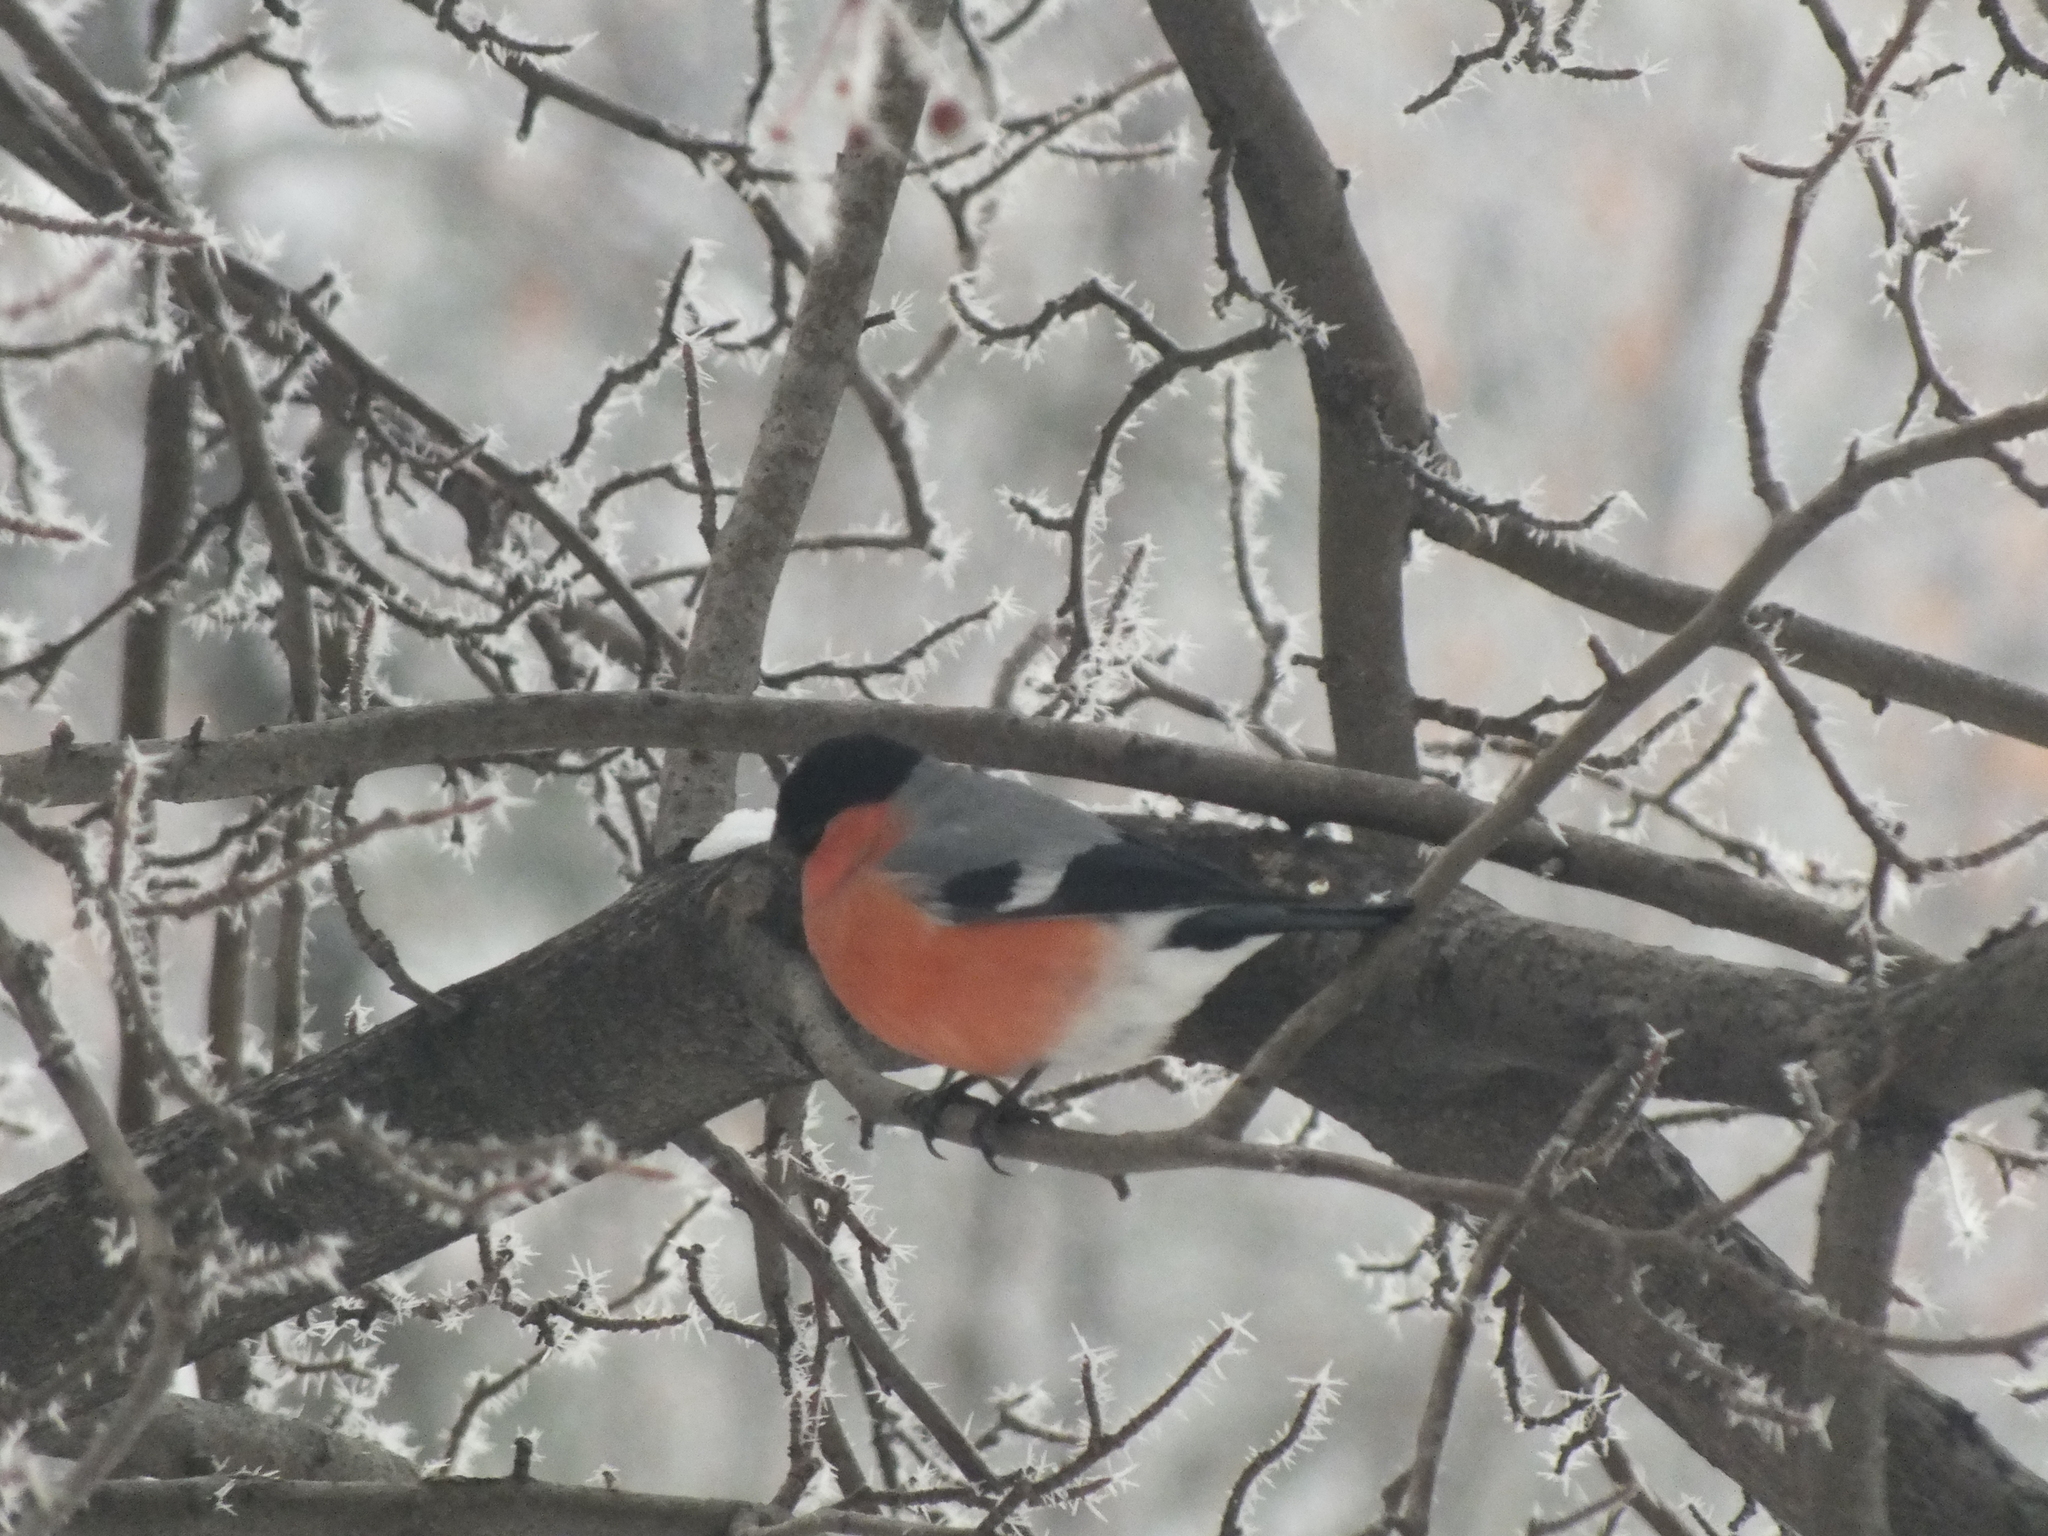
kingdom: Animalia
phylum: Chordata
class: Aves
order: Passeriformes
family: Fringillidae
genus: Pyrrhula
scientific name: Pyrrhula pyrrhula
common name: Eurasian bullfinch
